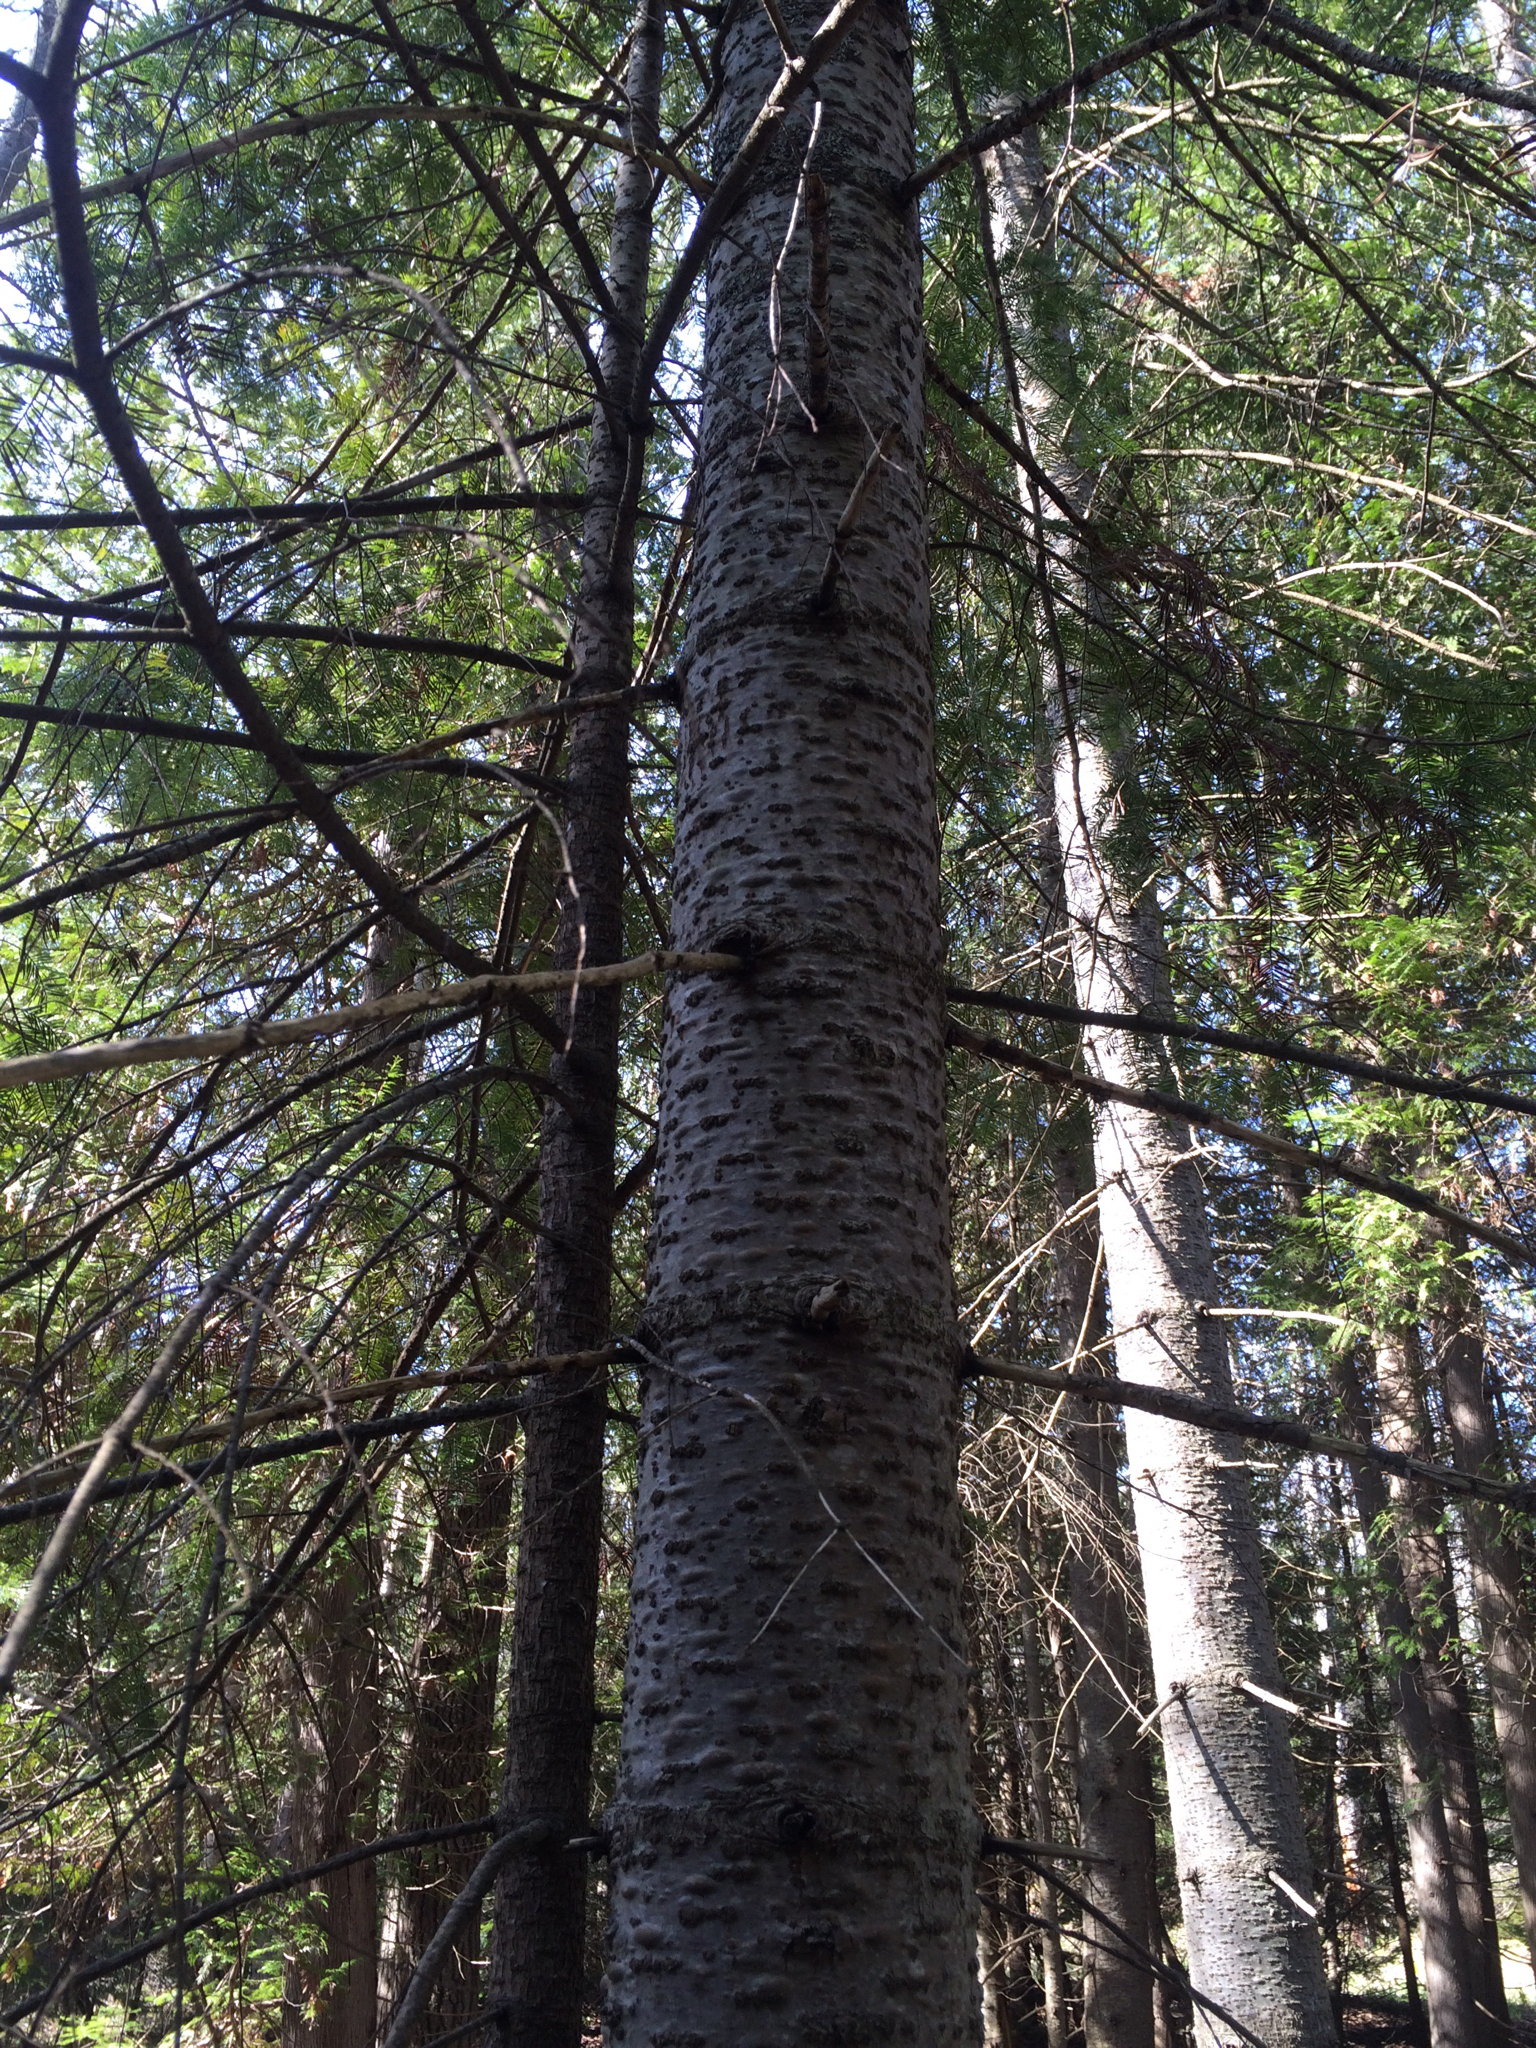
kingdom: Plantae
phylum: Tracheophyta
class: Pinopsida
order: Pinales
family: Pinaceae
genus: Abies
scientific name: Abies balsamea
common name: Balsam fir
